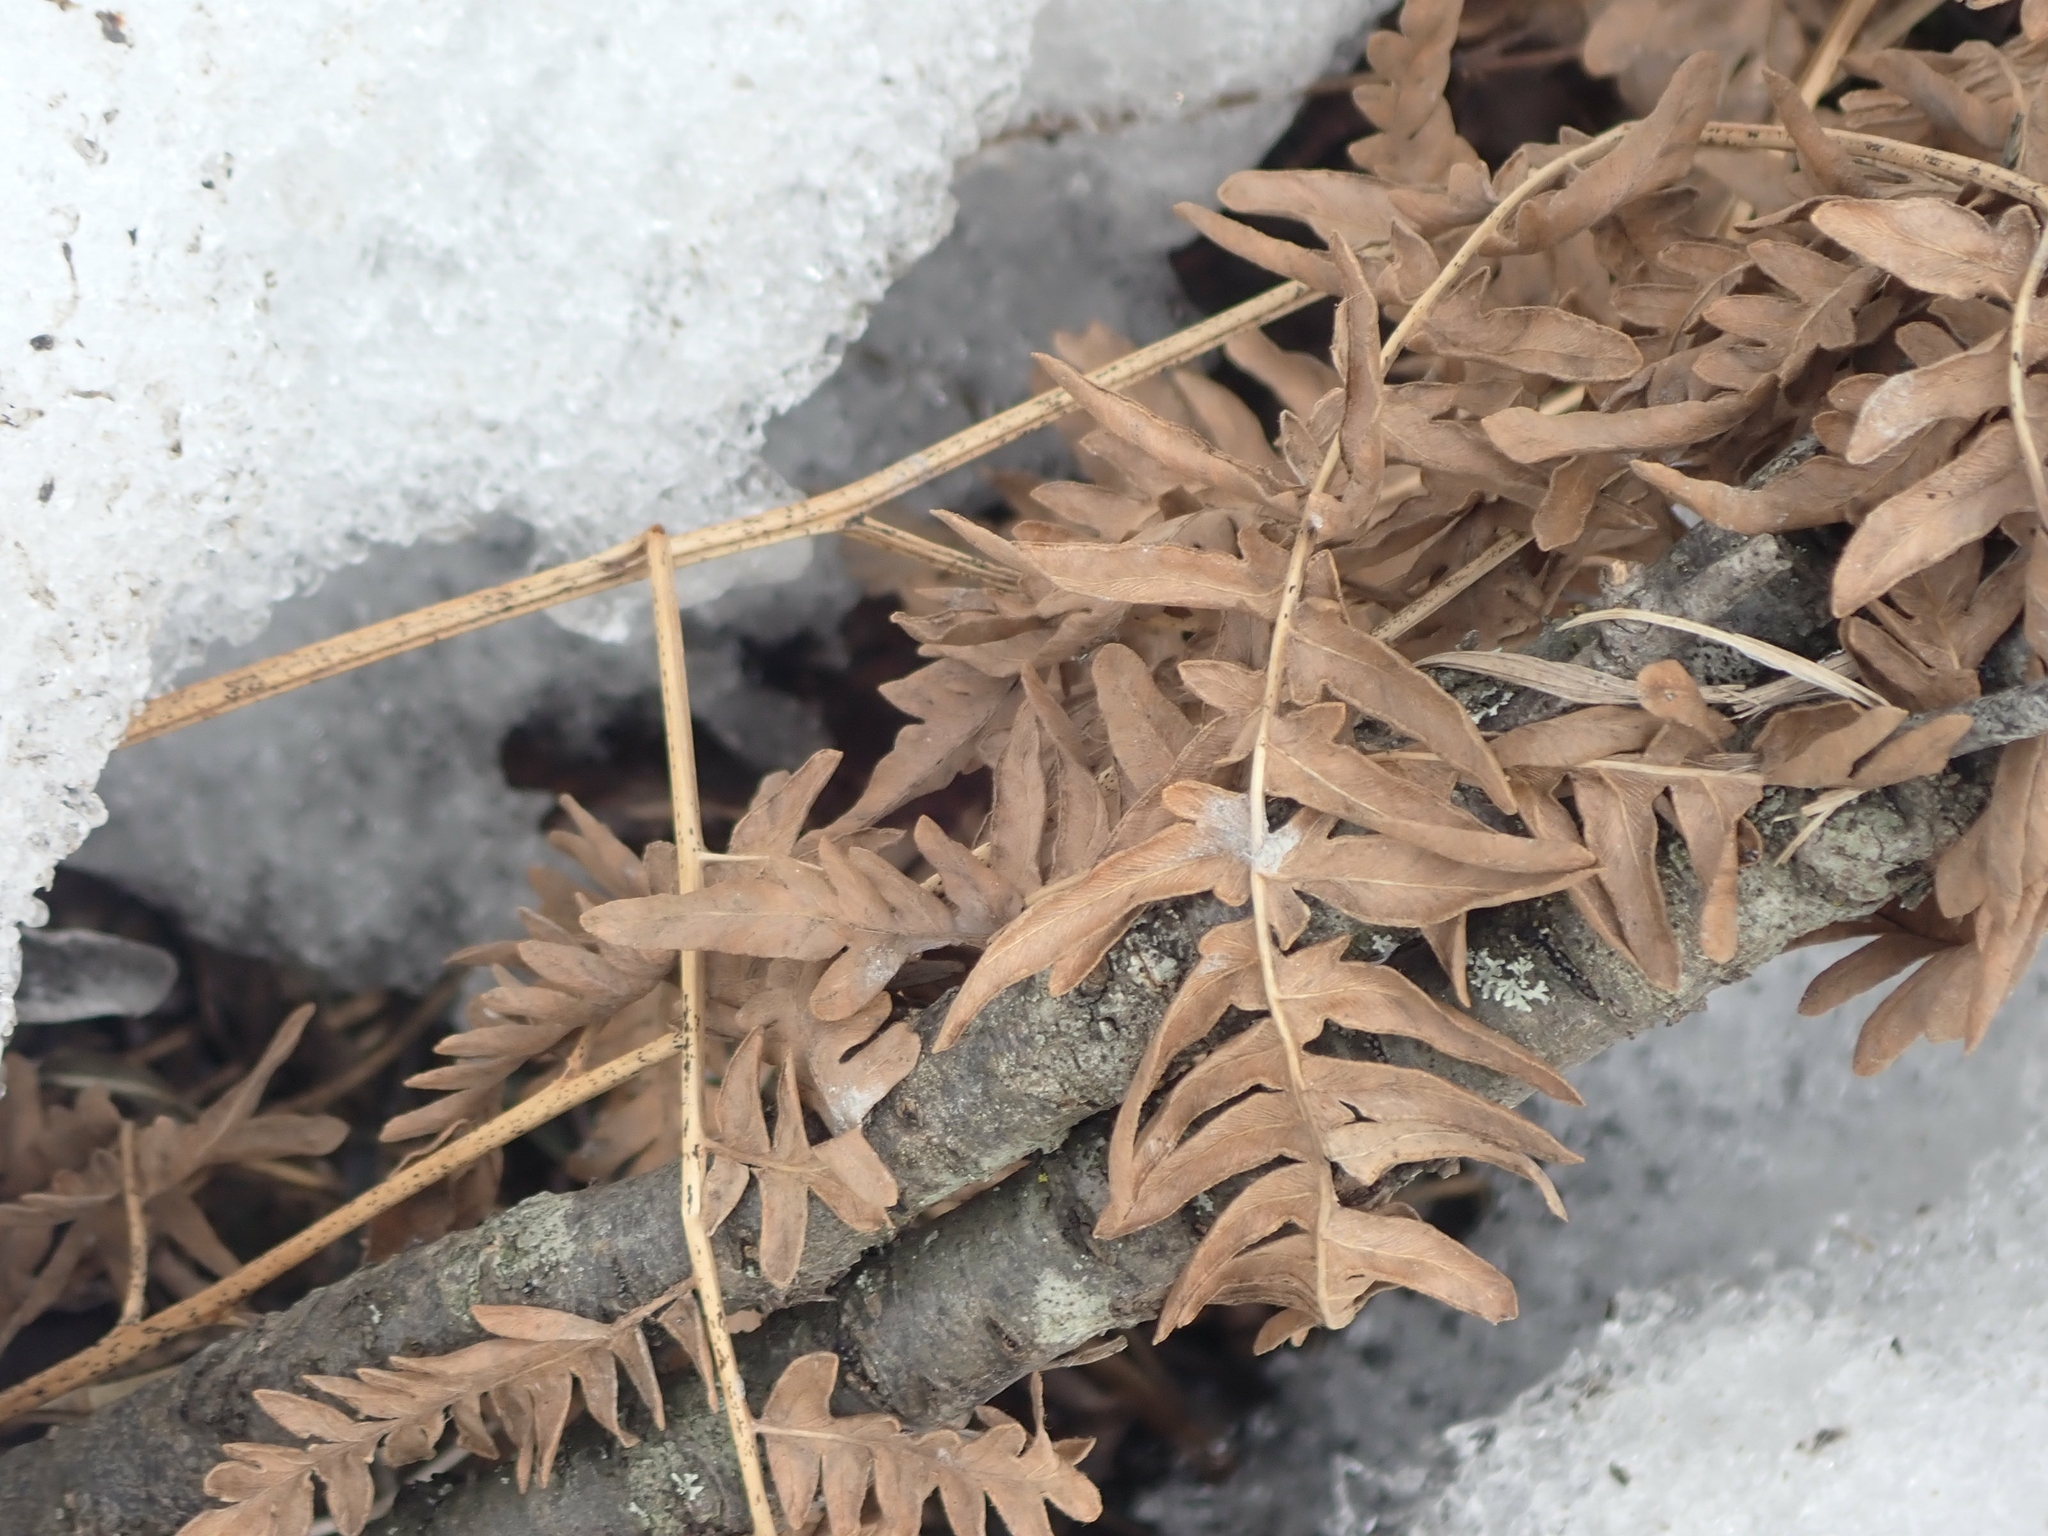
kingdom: Plantae
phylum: Tracheophyta
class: Polypodiopsida
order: Polypodiales
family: Dennstaedtiaceae
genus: Pteridium
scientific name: Pteridium aquilinum
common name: Bracken
